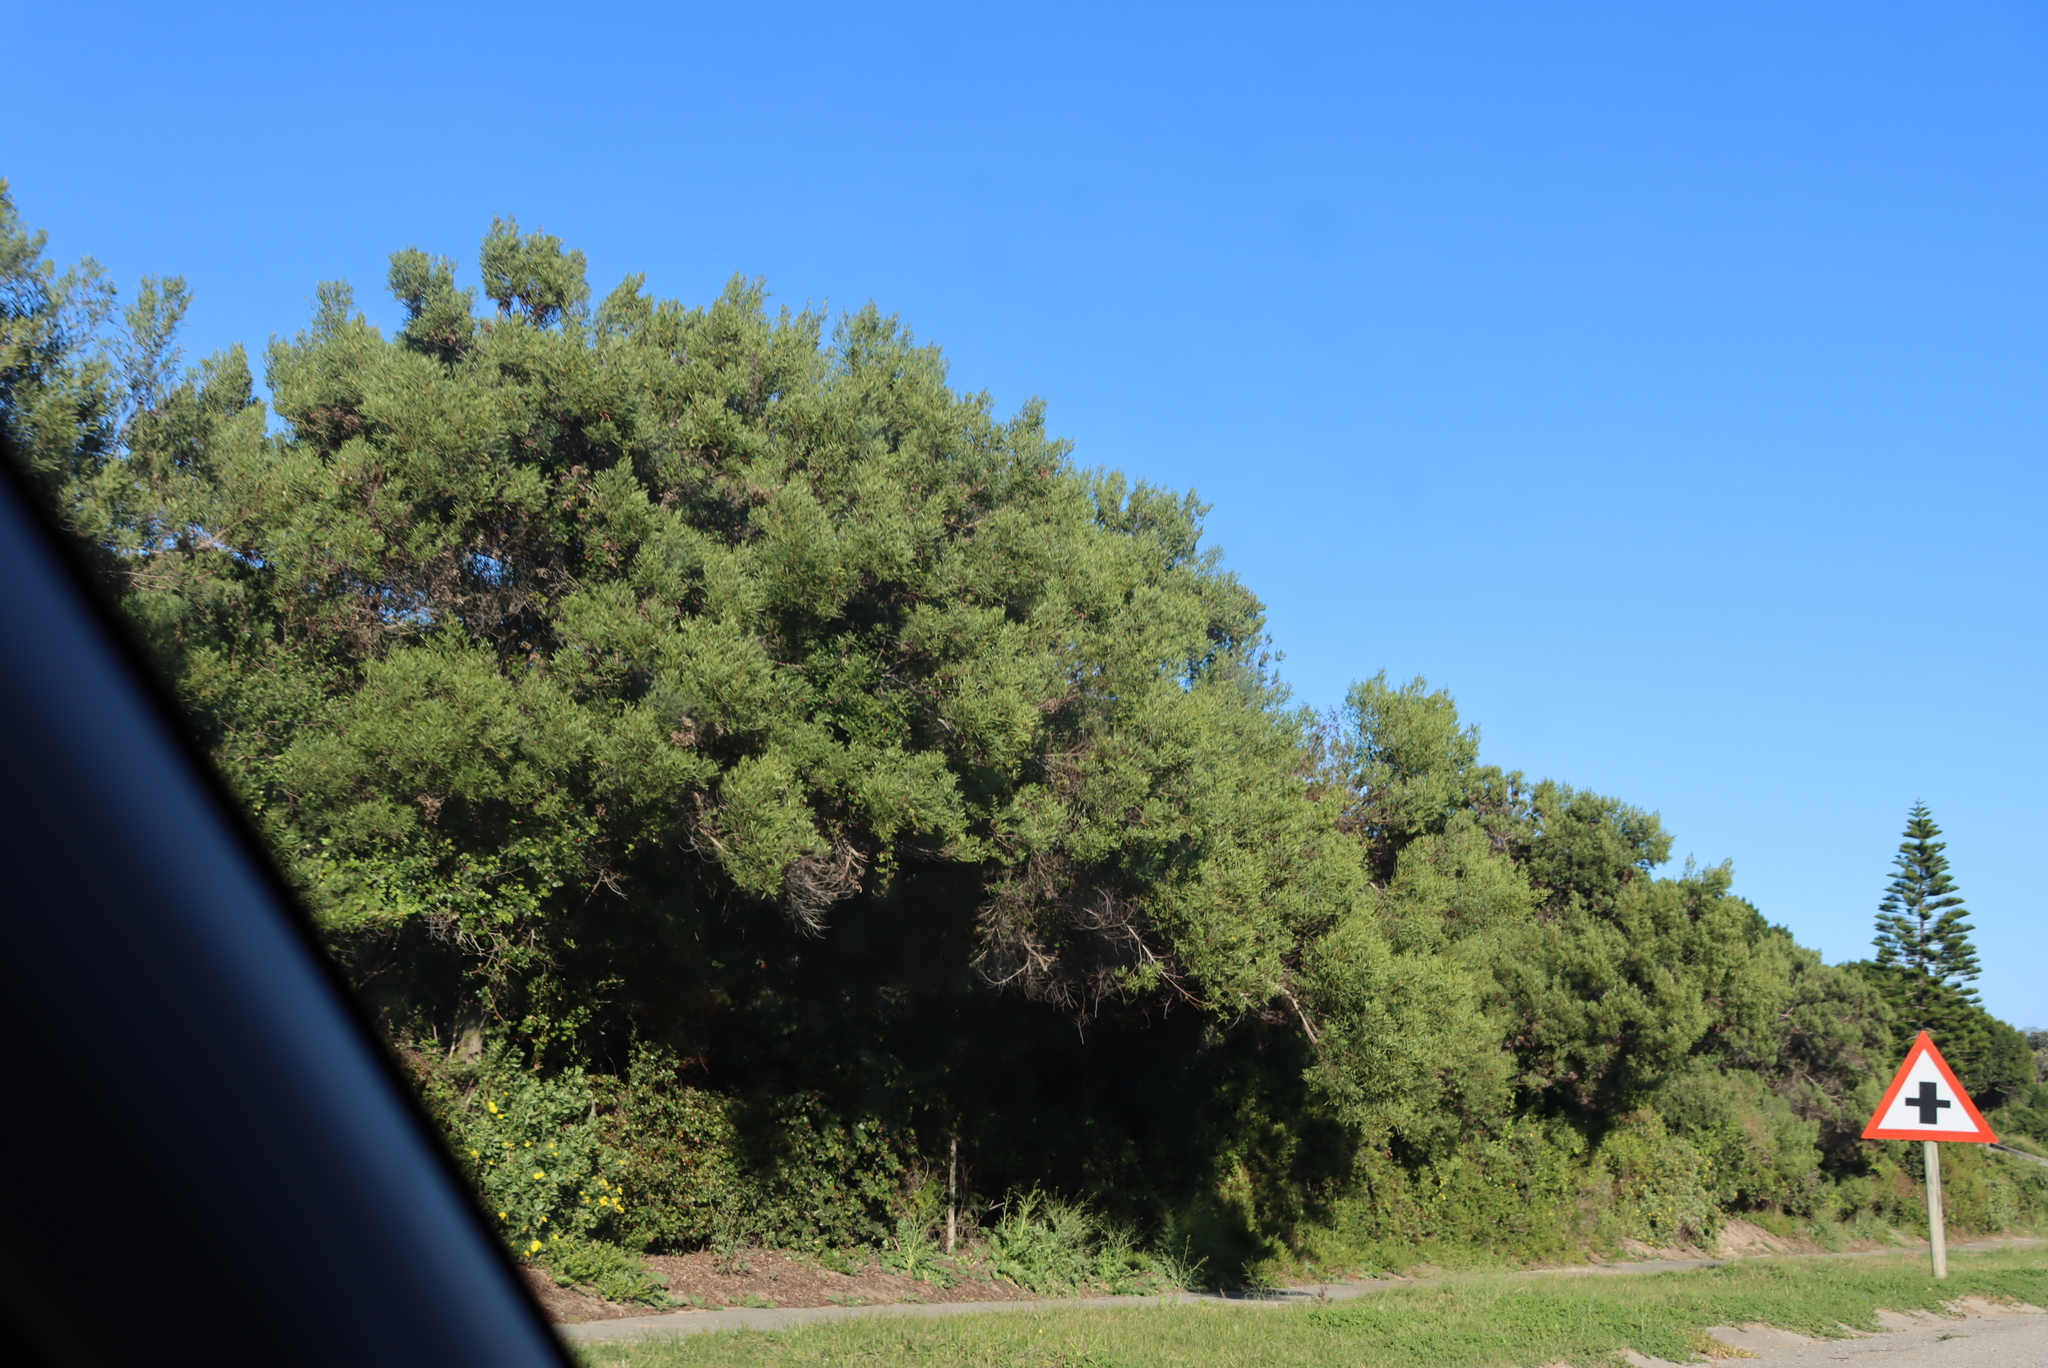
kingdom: Plantae
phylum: Tracheophyta
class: Magnoliopsida
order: Fabales
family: Fabaceae
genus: Acacia
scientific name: Acacia cyclops
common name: Coastal wattle
